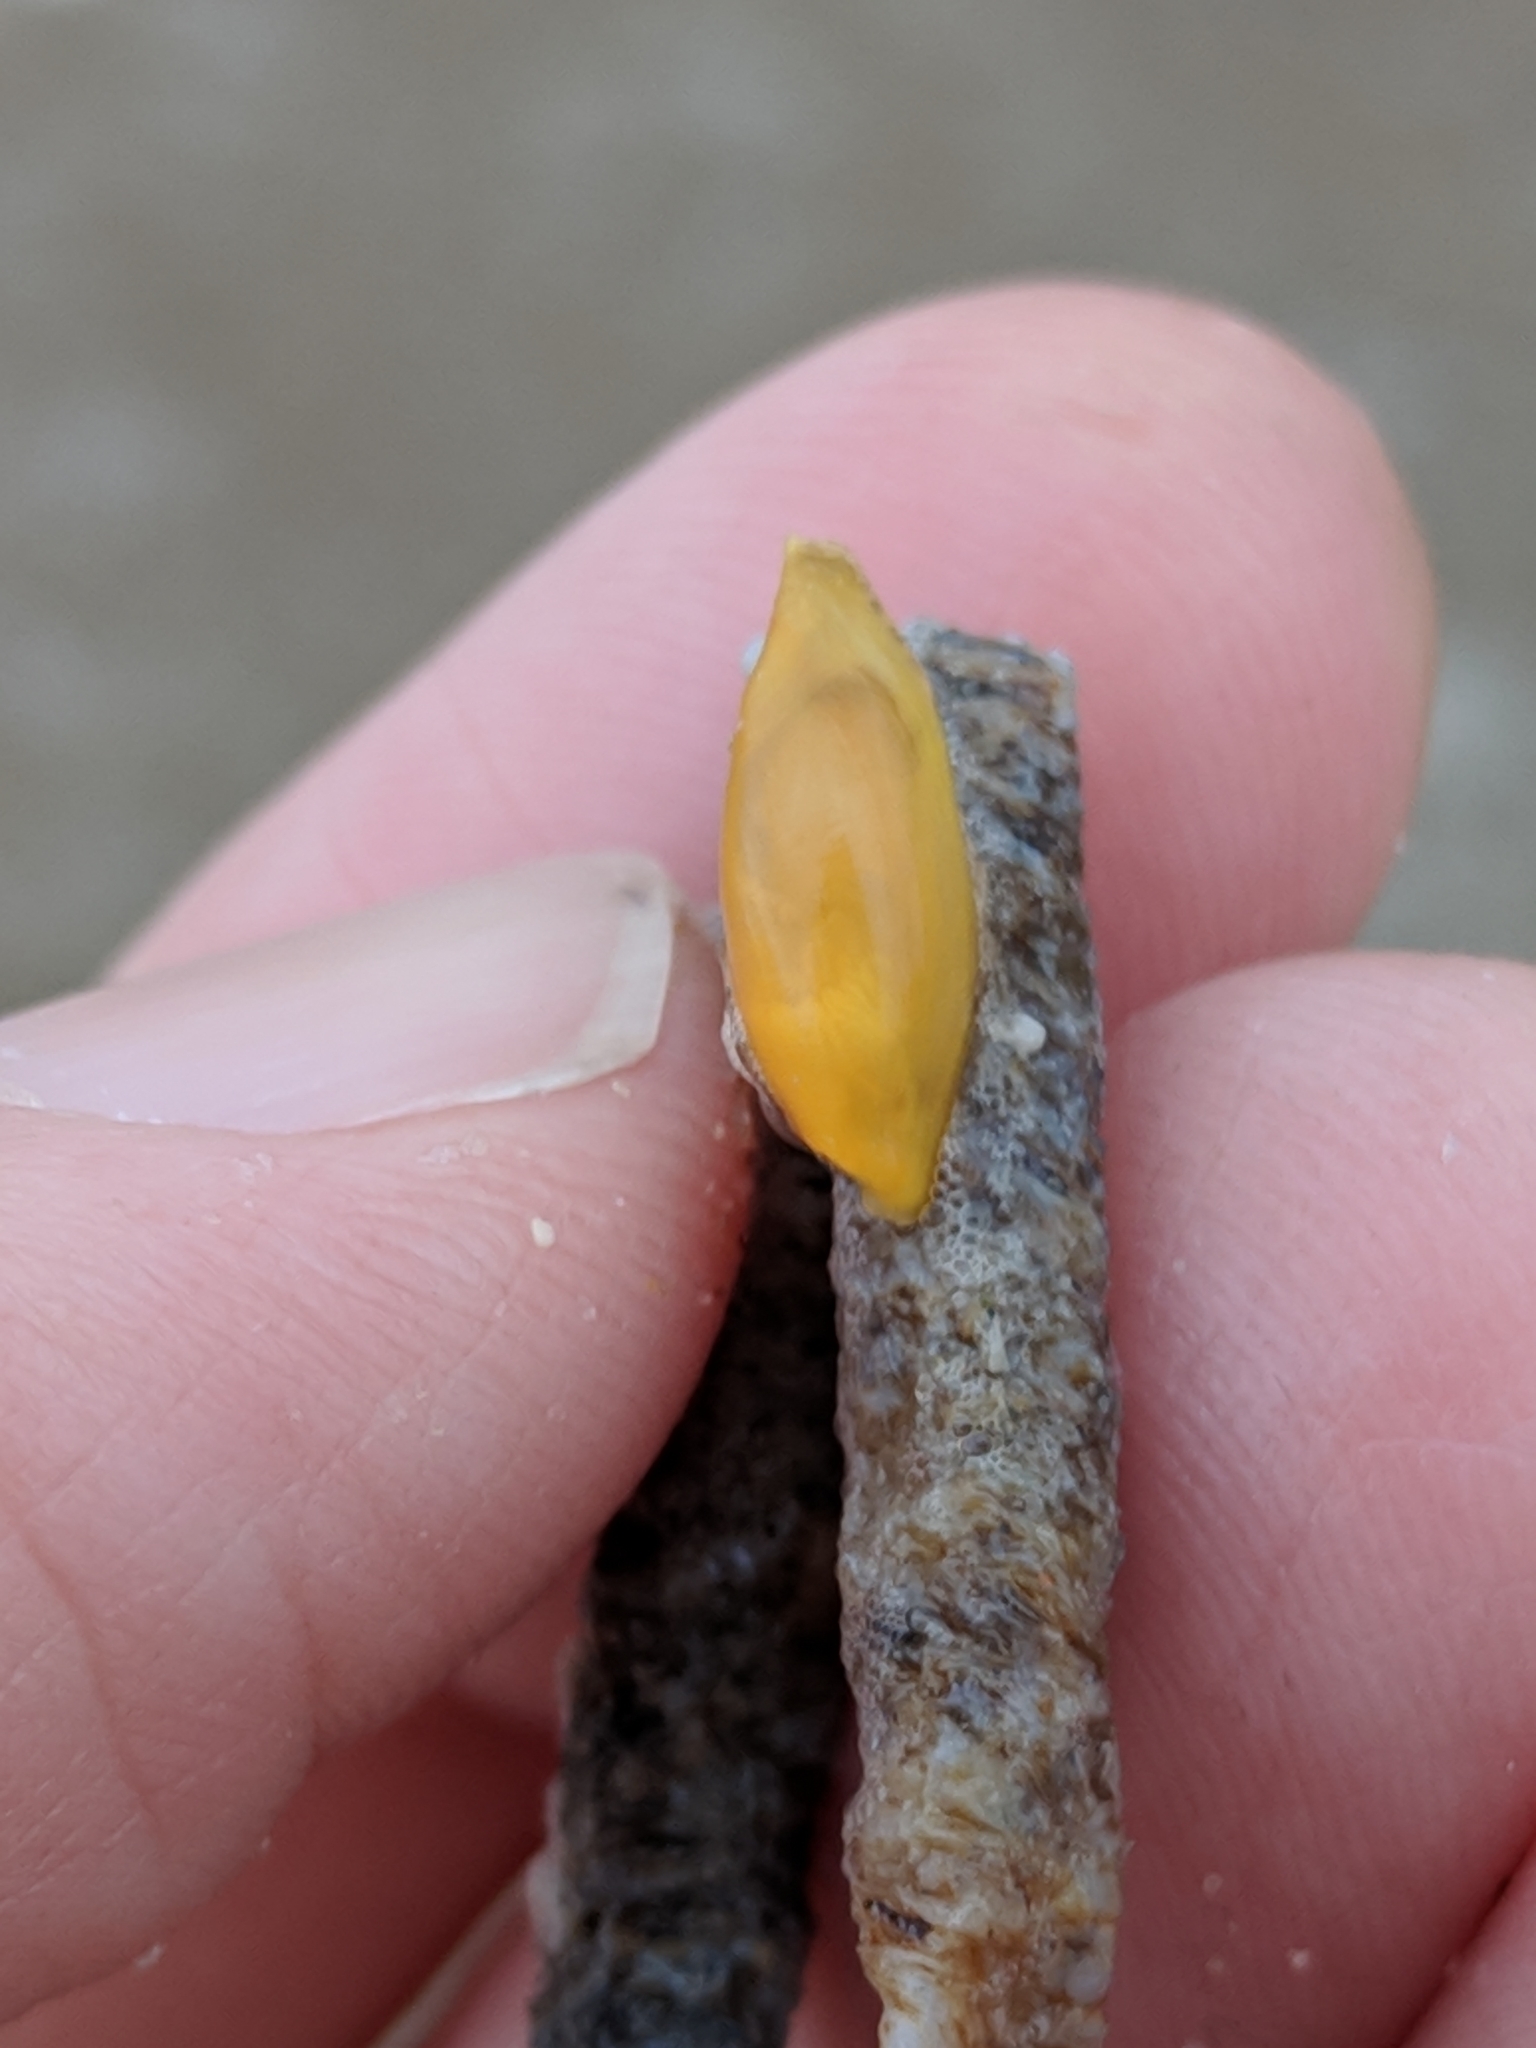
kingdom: Animalia
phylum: Mollusca
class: Gastropoda
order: Littorinimorpha
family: Ovulidae
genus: Simnialena
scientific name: Simnialena uniplicata
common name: One-tooth simnia
